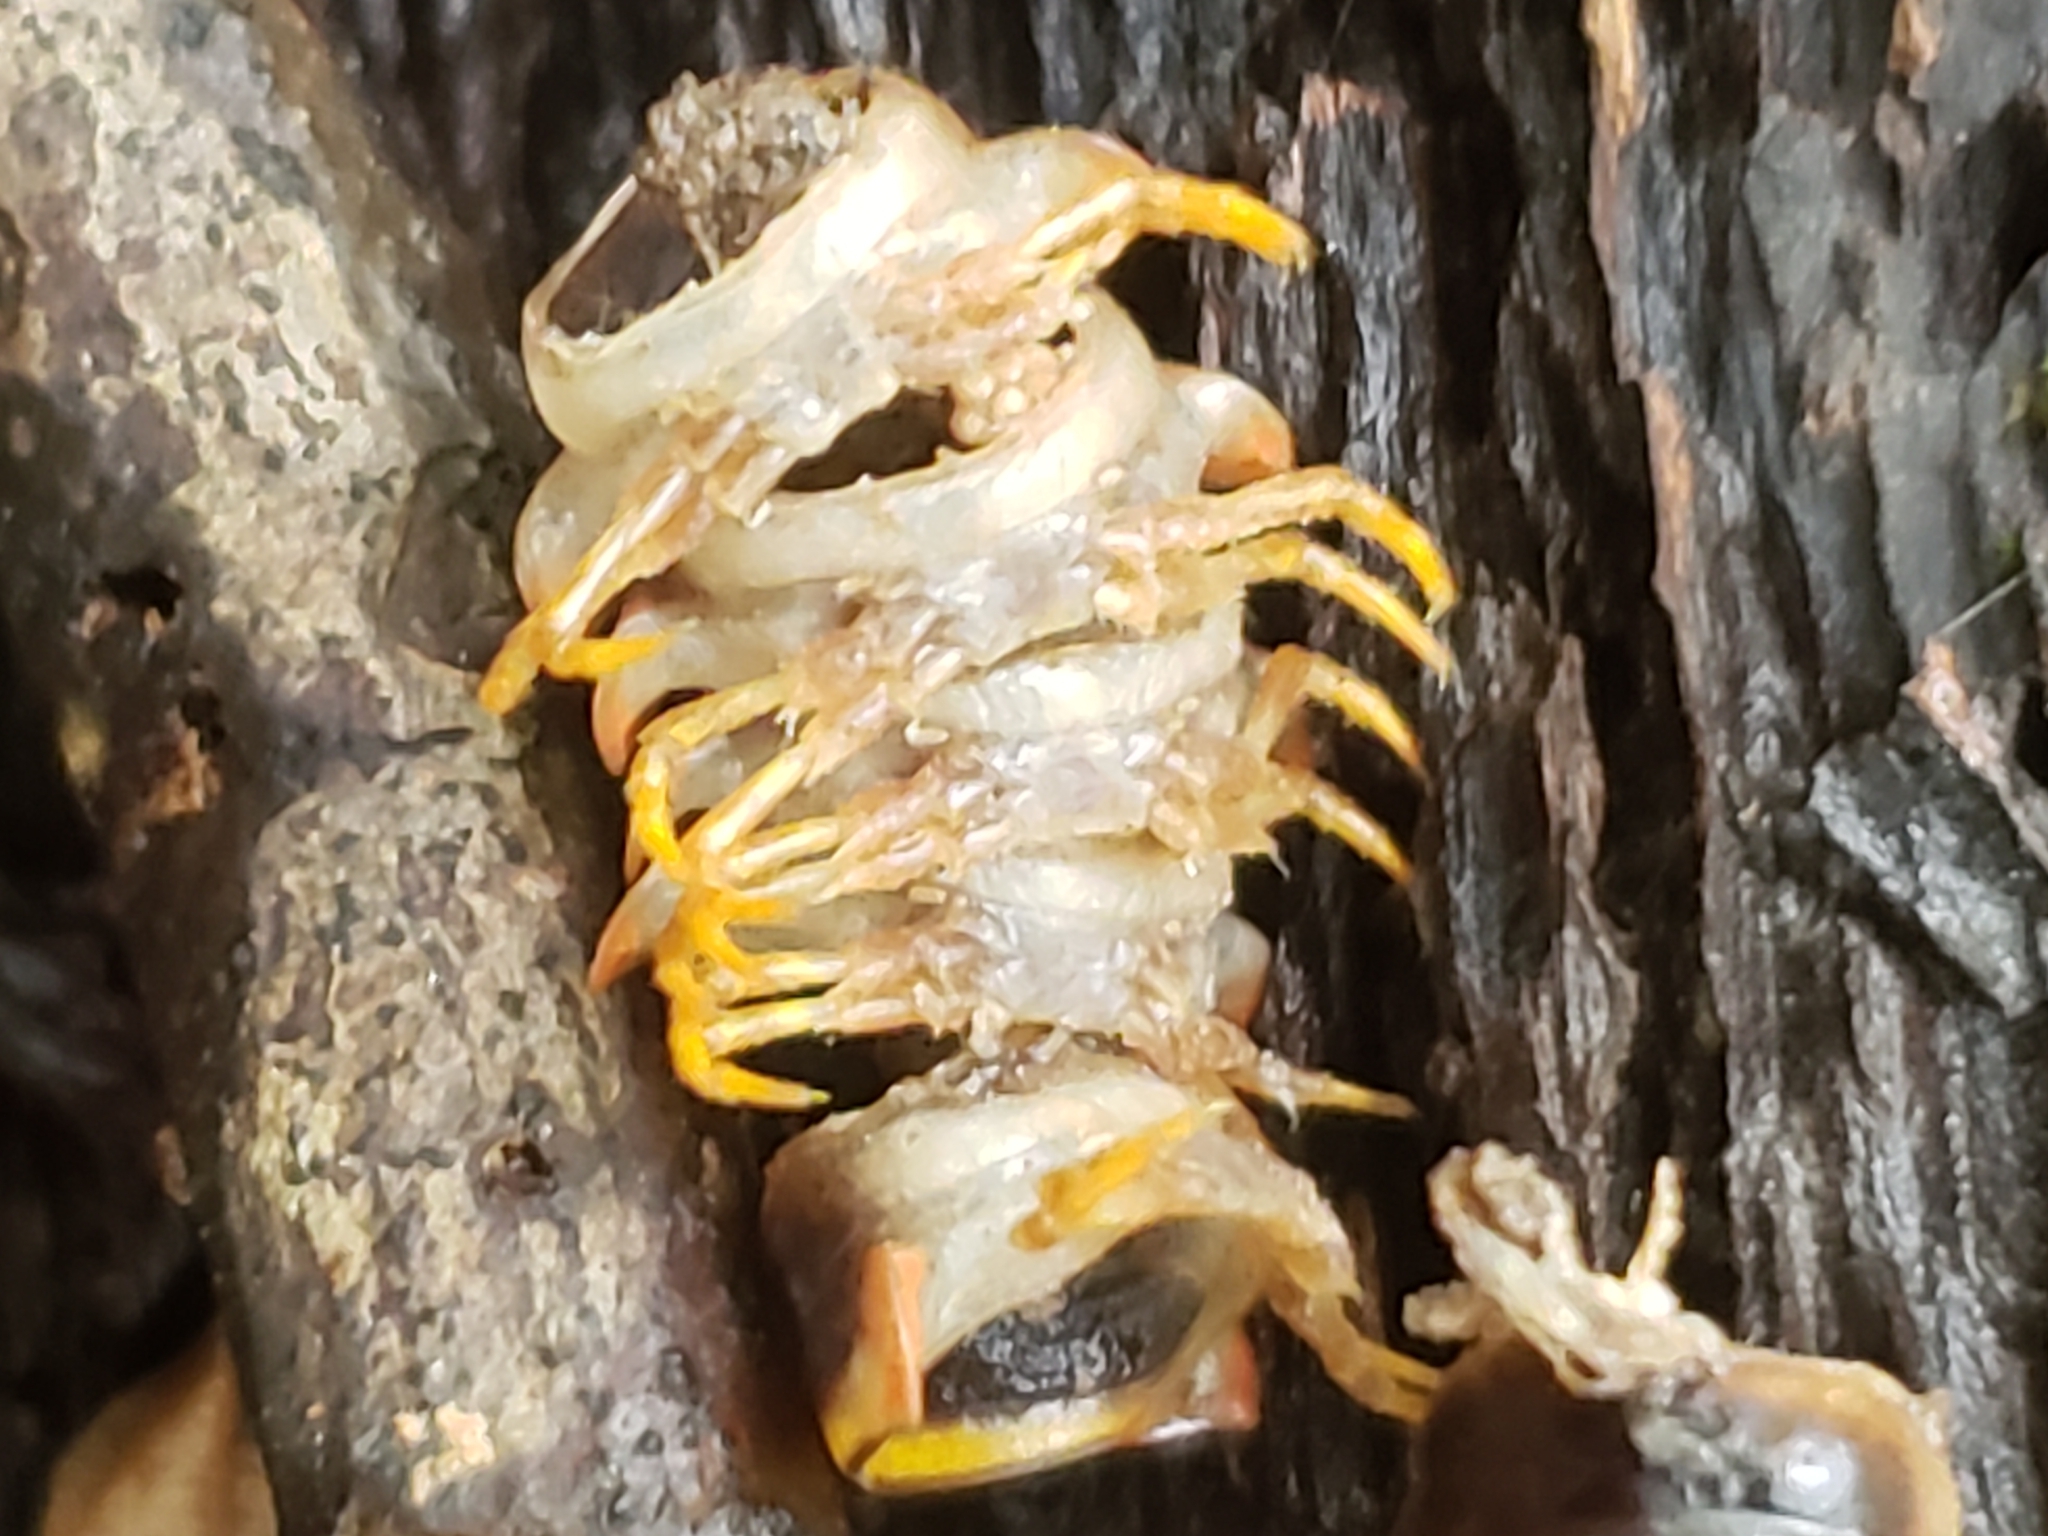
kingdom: Fungi
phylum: Entomophthoromycota
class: Entomophthoromycetes
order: Entomophthorales
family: Entomophthoraceae
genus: Arthrophaga
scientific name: Arthrophaga myriapodina
